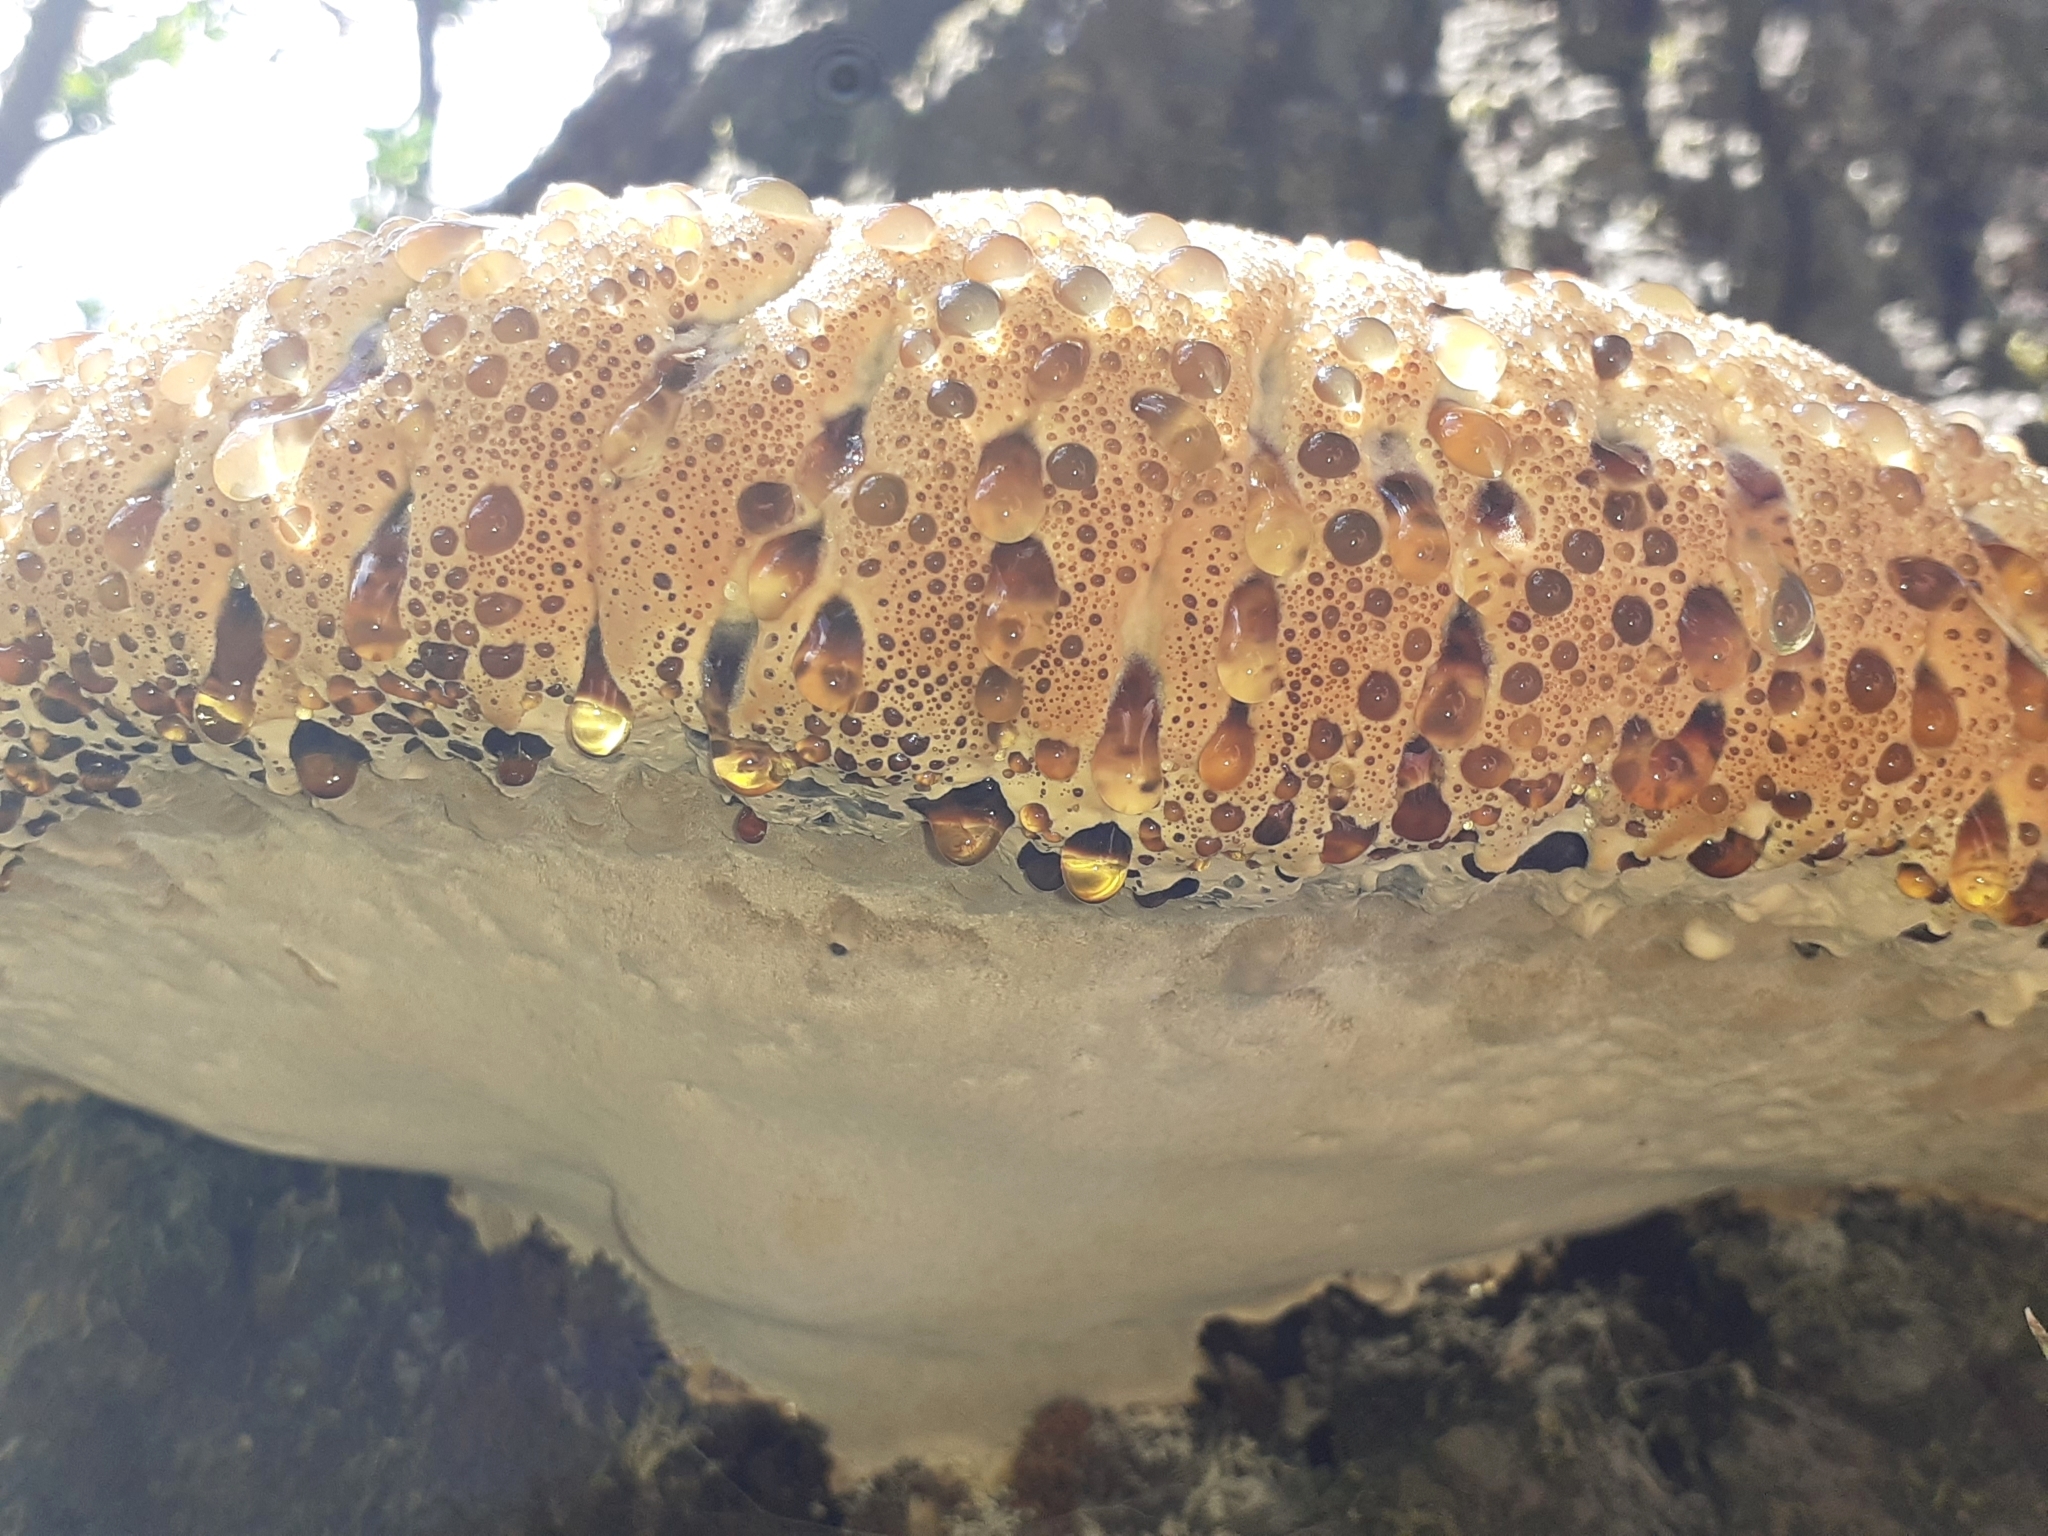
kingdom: Fungi
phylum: Basidiomycota
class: Agaricomycetes
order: Hymenochaetales
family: Hymenochaetaceae
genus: Pseudoinonotus
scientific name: Pseudoinonotus dryadeus
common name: Oak bracket
